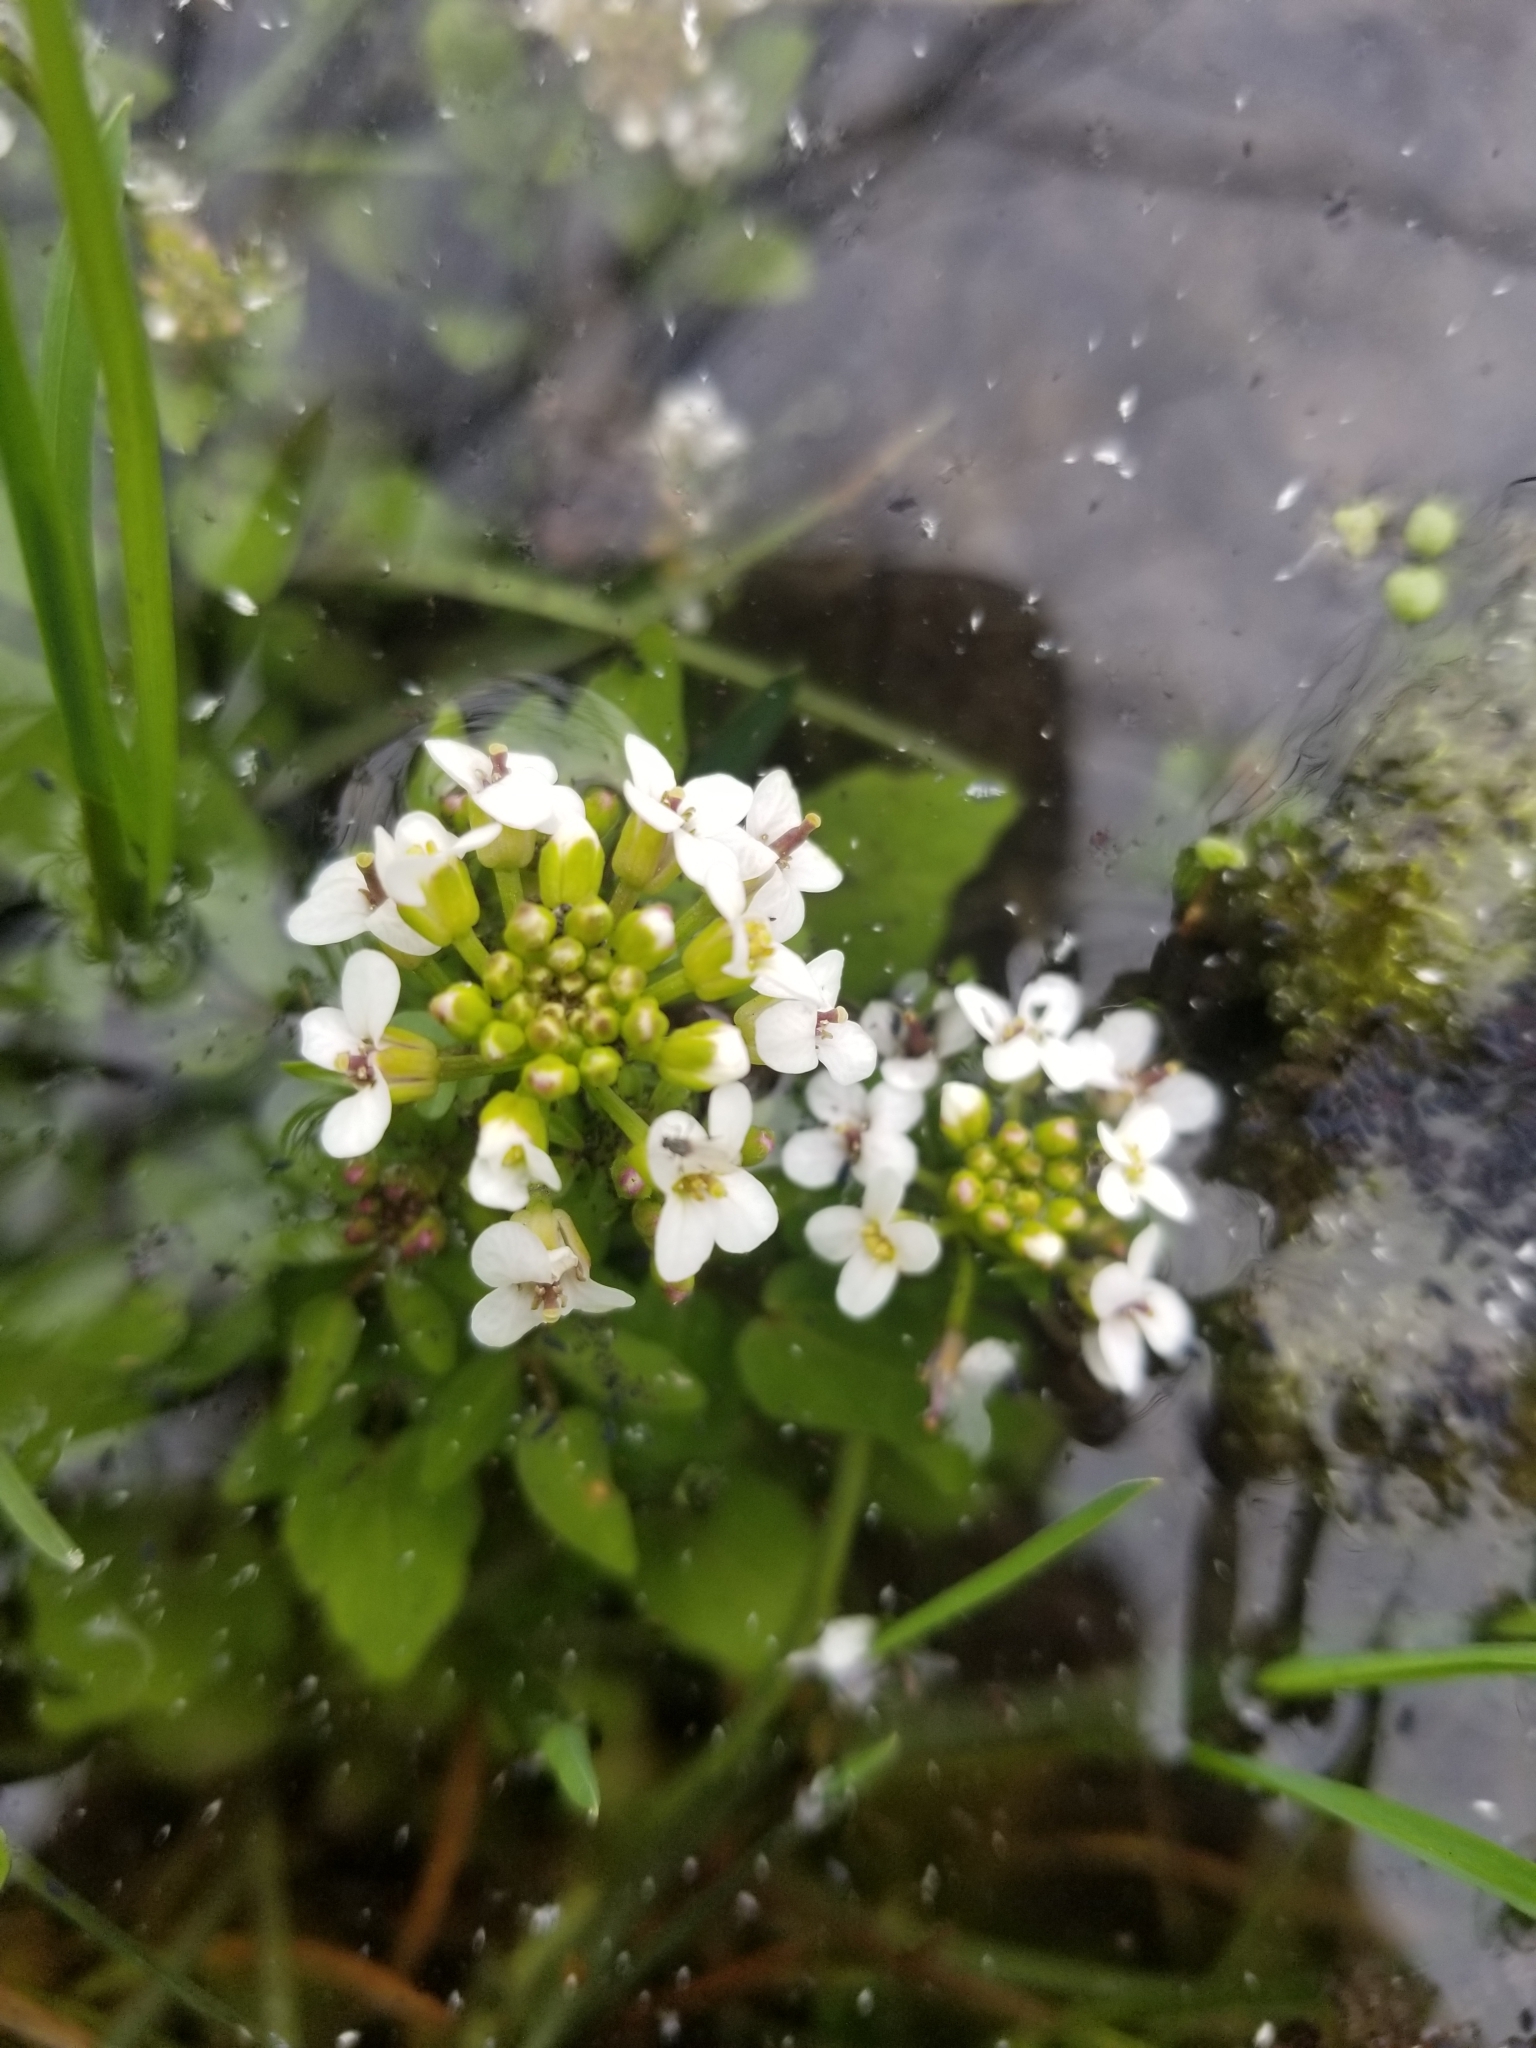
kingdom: Plantae
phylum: Tracheophyta
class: Magnoliopsida
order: Brassicales
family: Brassicaceae
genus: Nasturtium
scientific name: Nasturtium officinale
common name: Watercress
